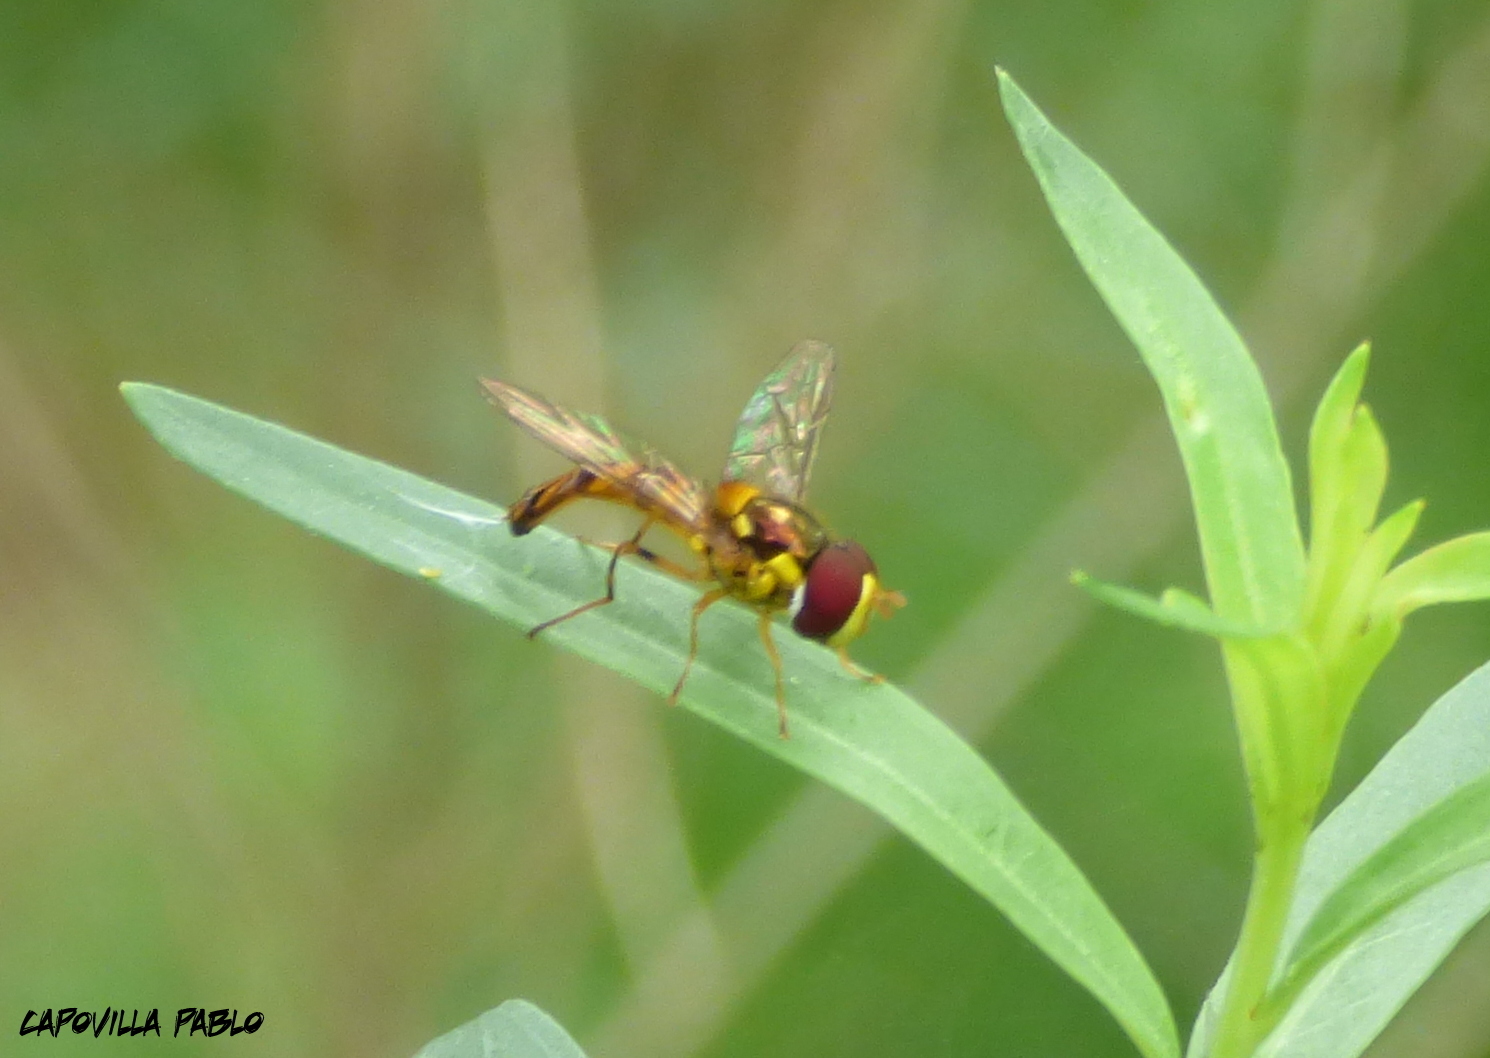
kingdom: Animalia
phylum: Arthropoda
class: Insecta
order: Diptera
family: Syrphidae
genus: Allograpta
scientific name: Allograpta
